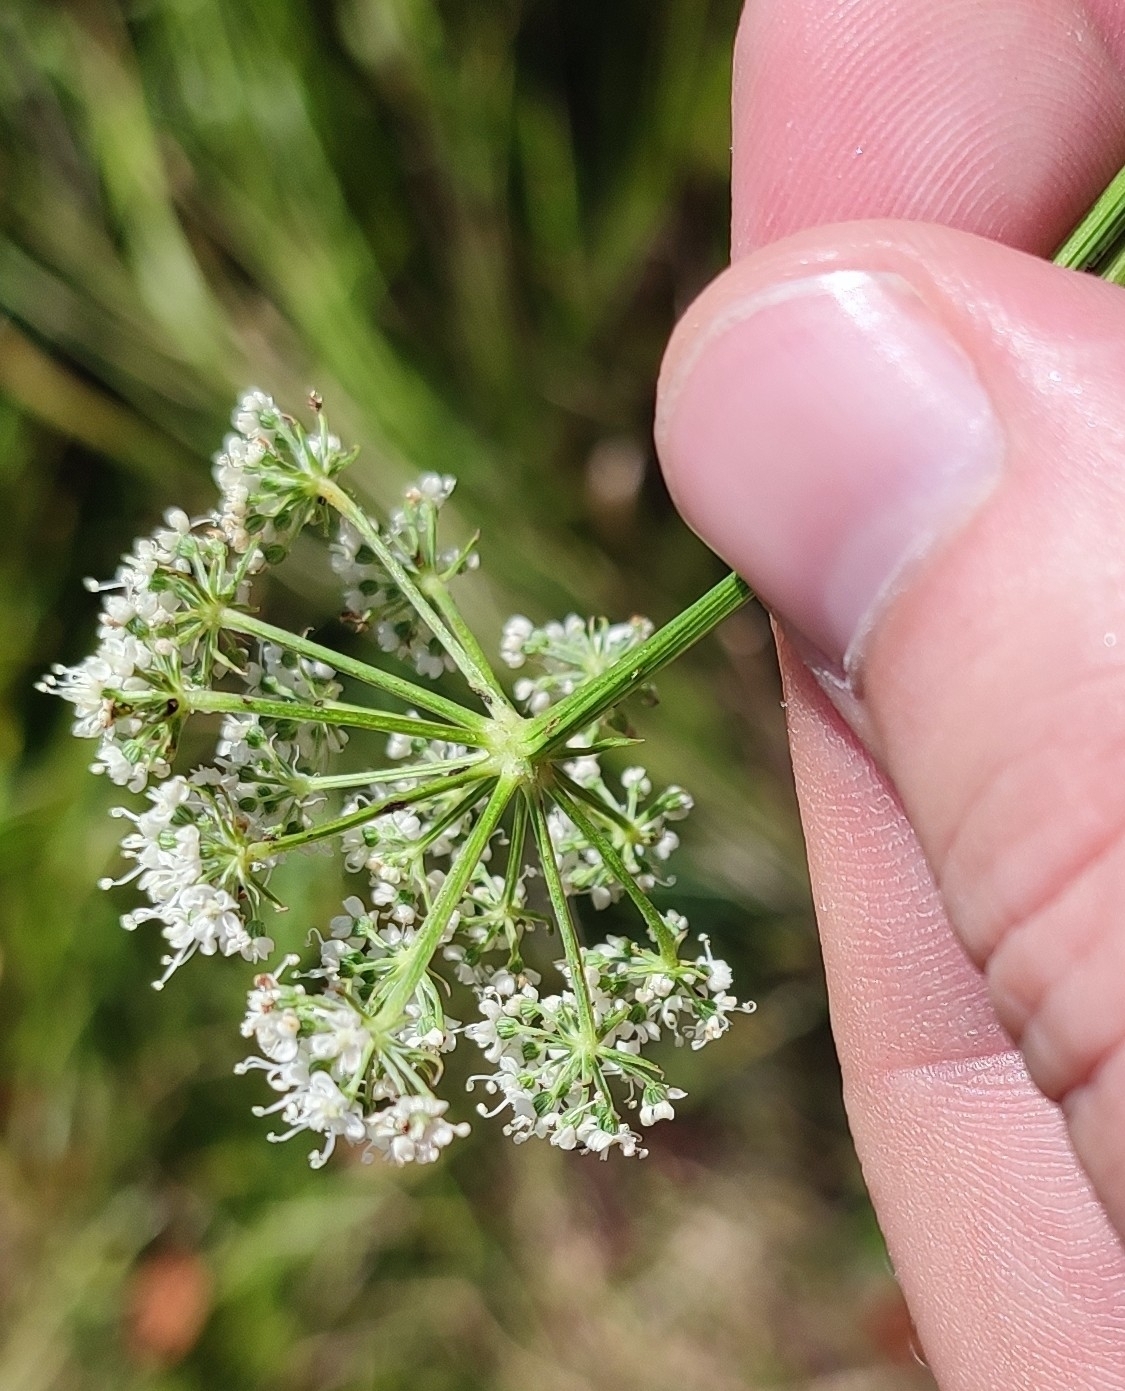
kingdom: Plantae
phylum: Tracheophyta
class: Magnoliopsida
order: Apiales
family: Apiaceae
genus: Kadenia
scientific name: Kadenia dubia
